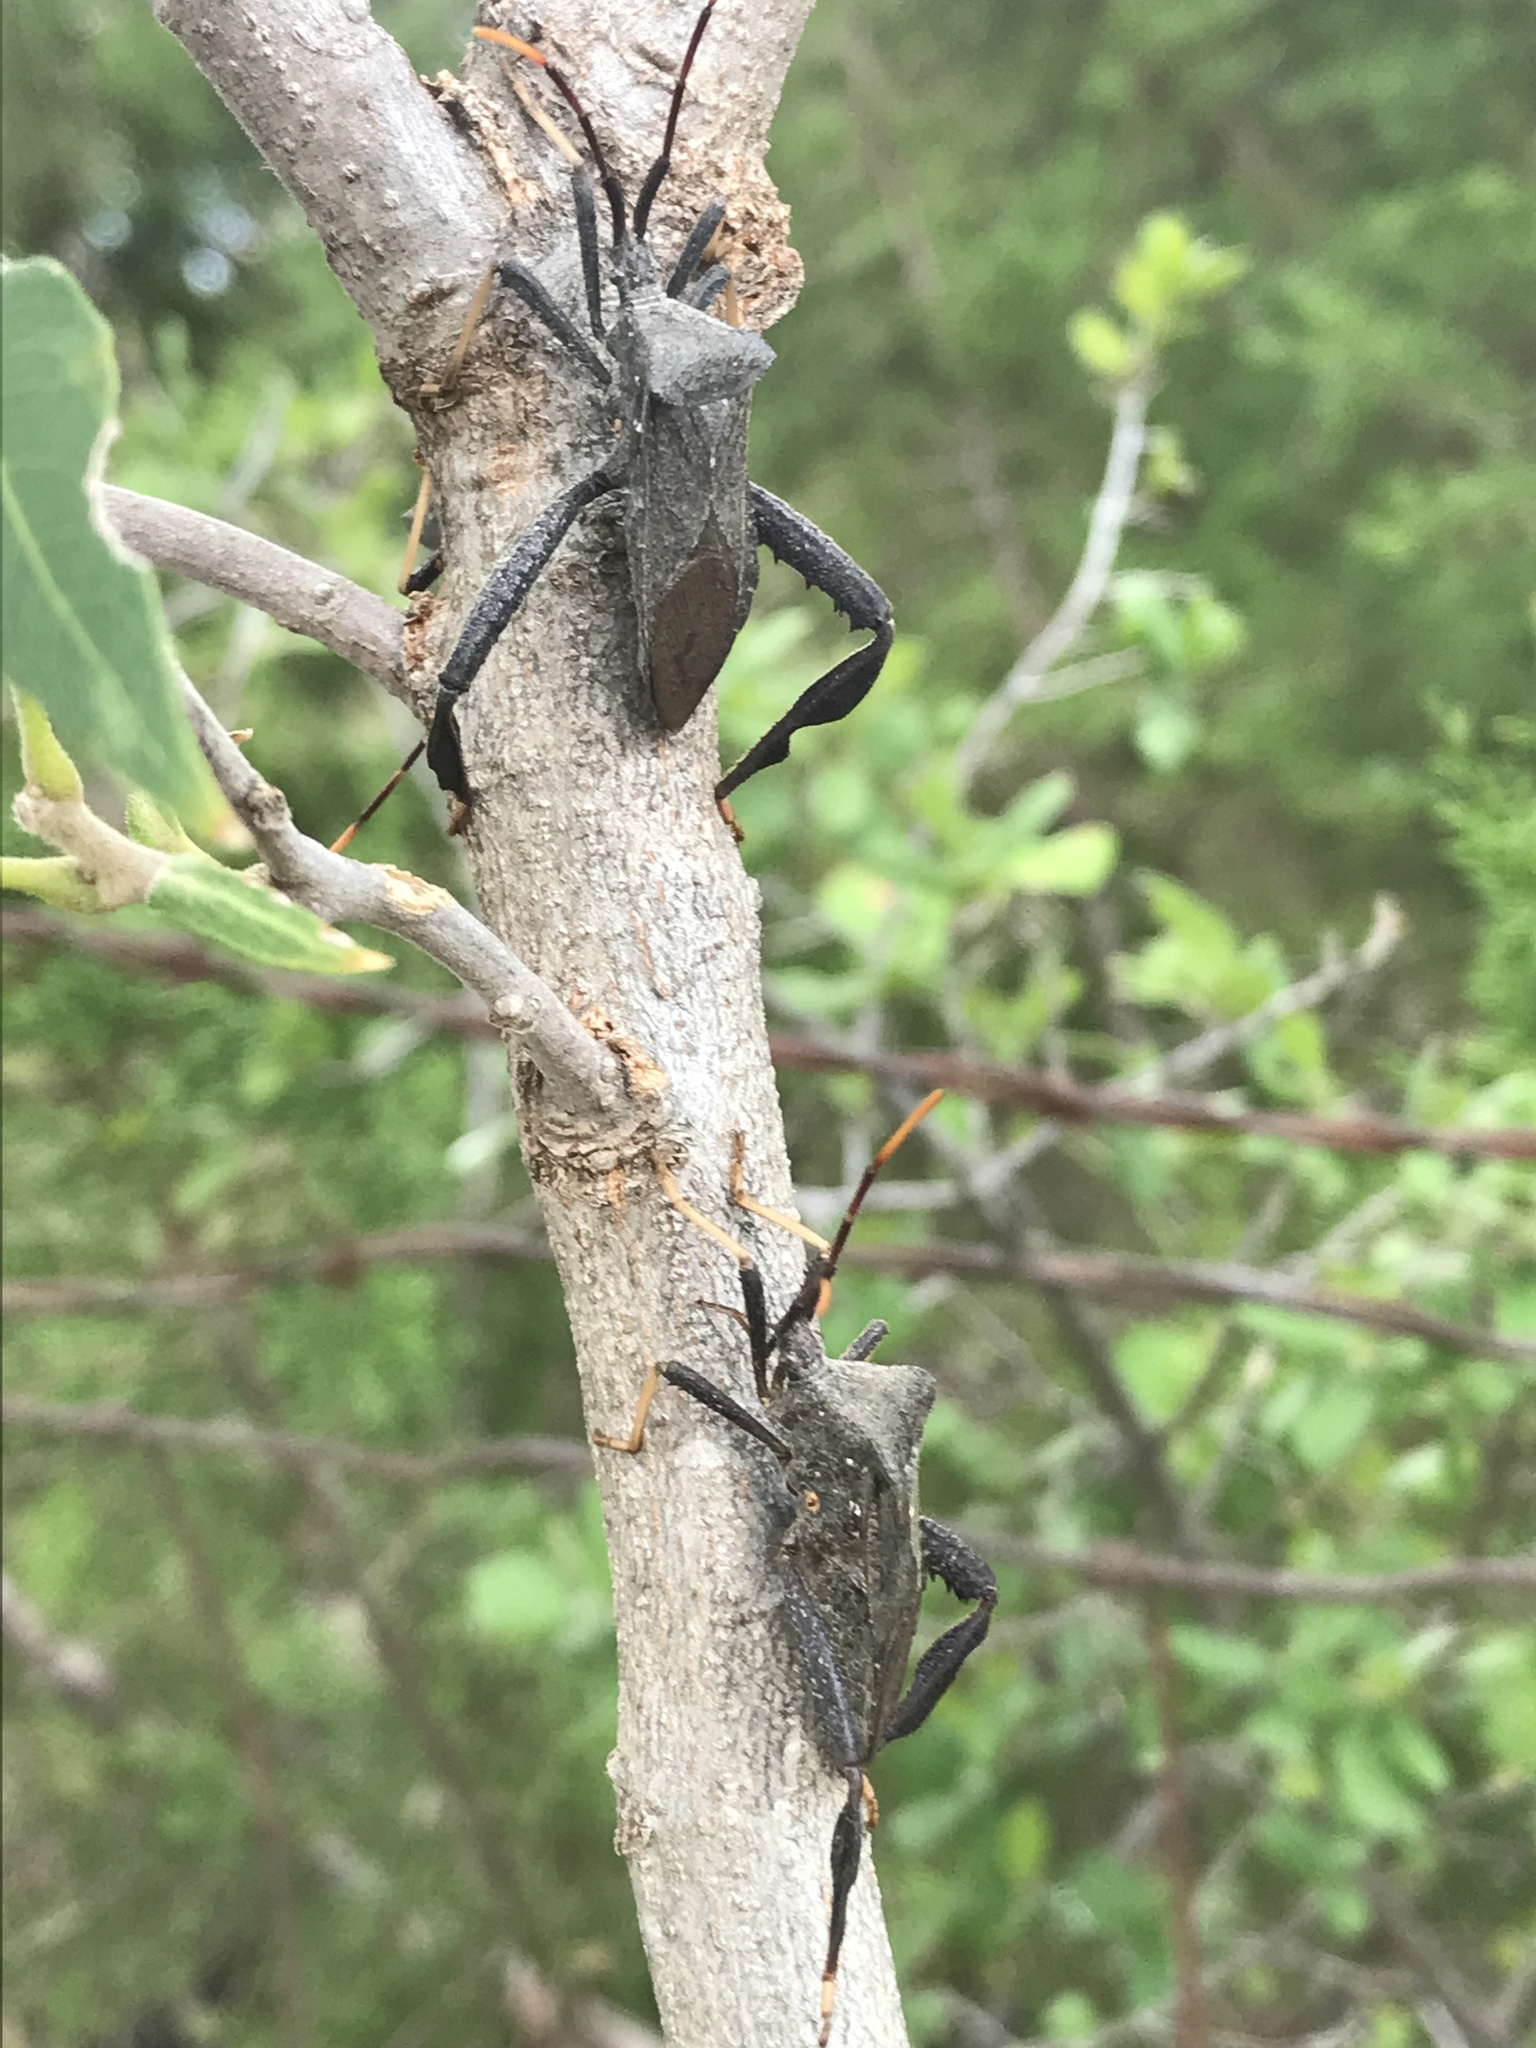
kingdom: Animalia
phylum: Arthropoda
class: Insecta
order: Hemiptera
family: Coreidae
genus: Acanthocephala
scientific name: Acanthocephala terminalis
